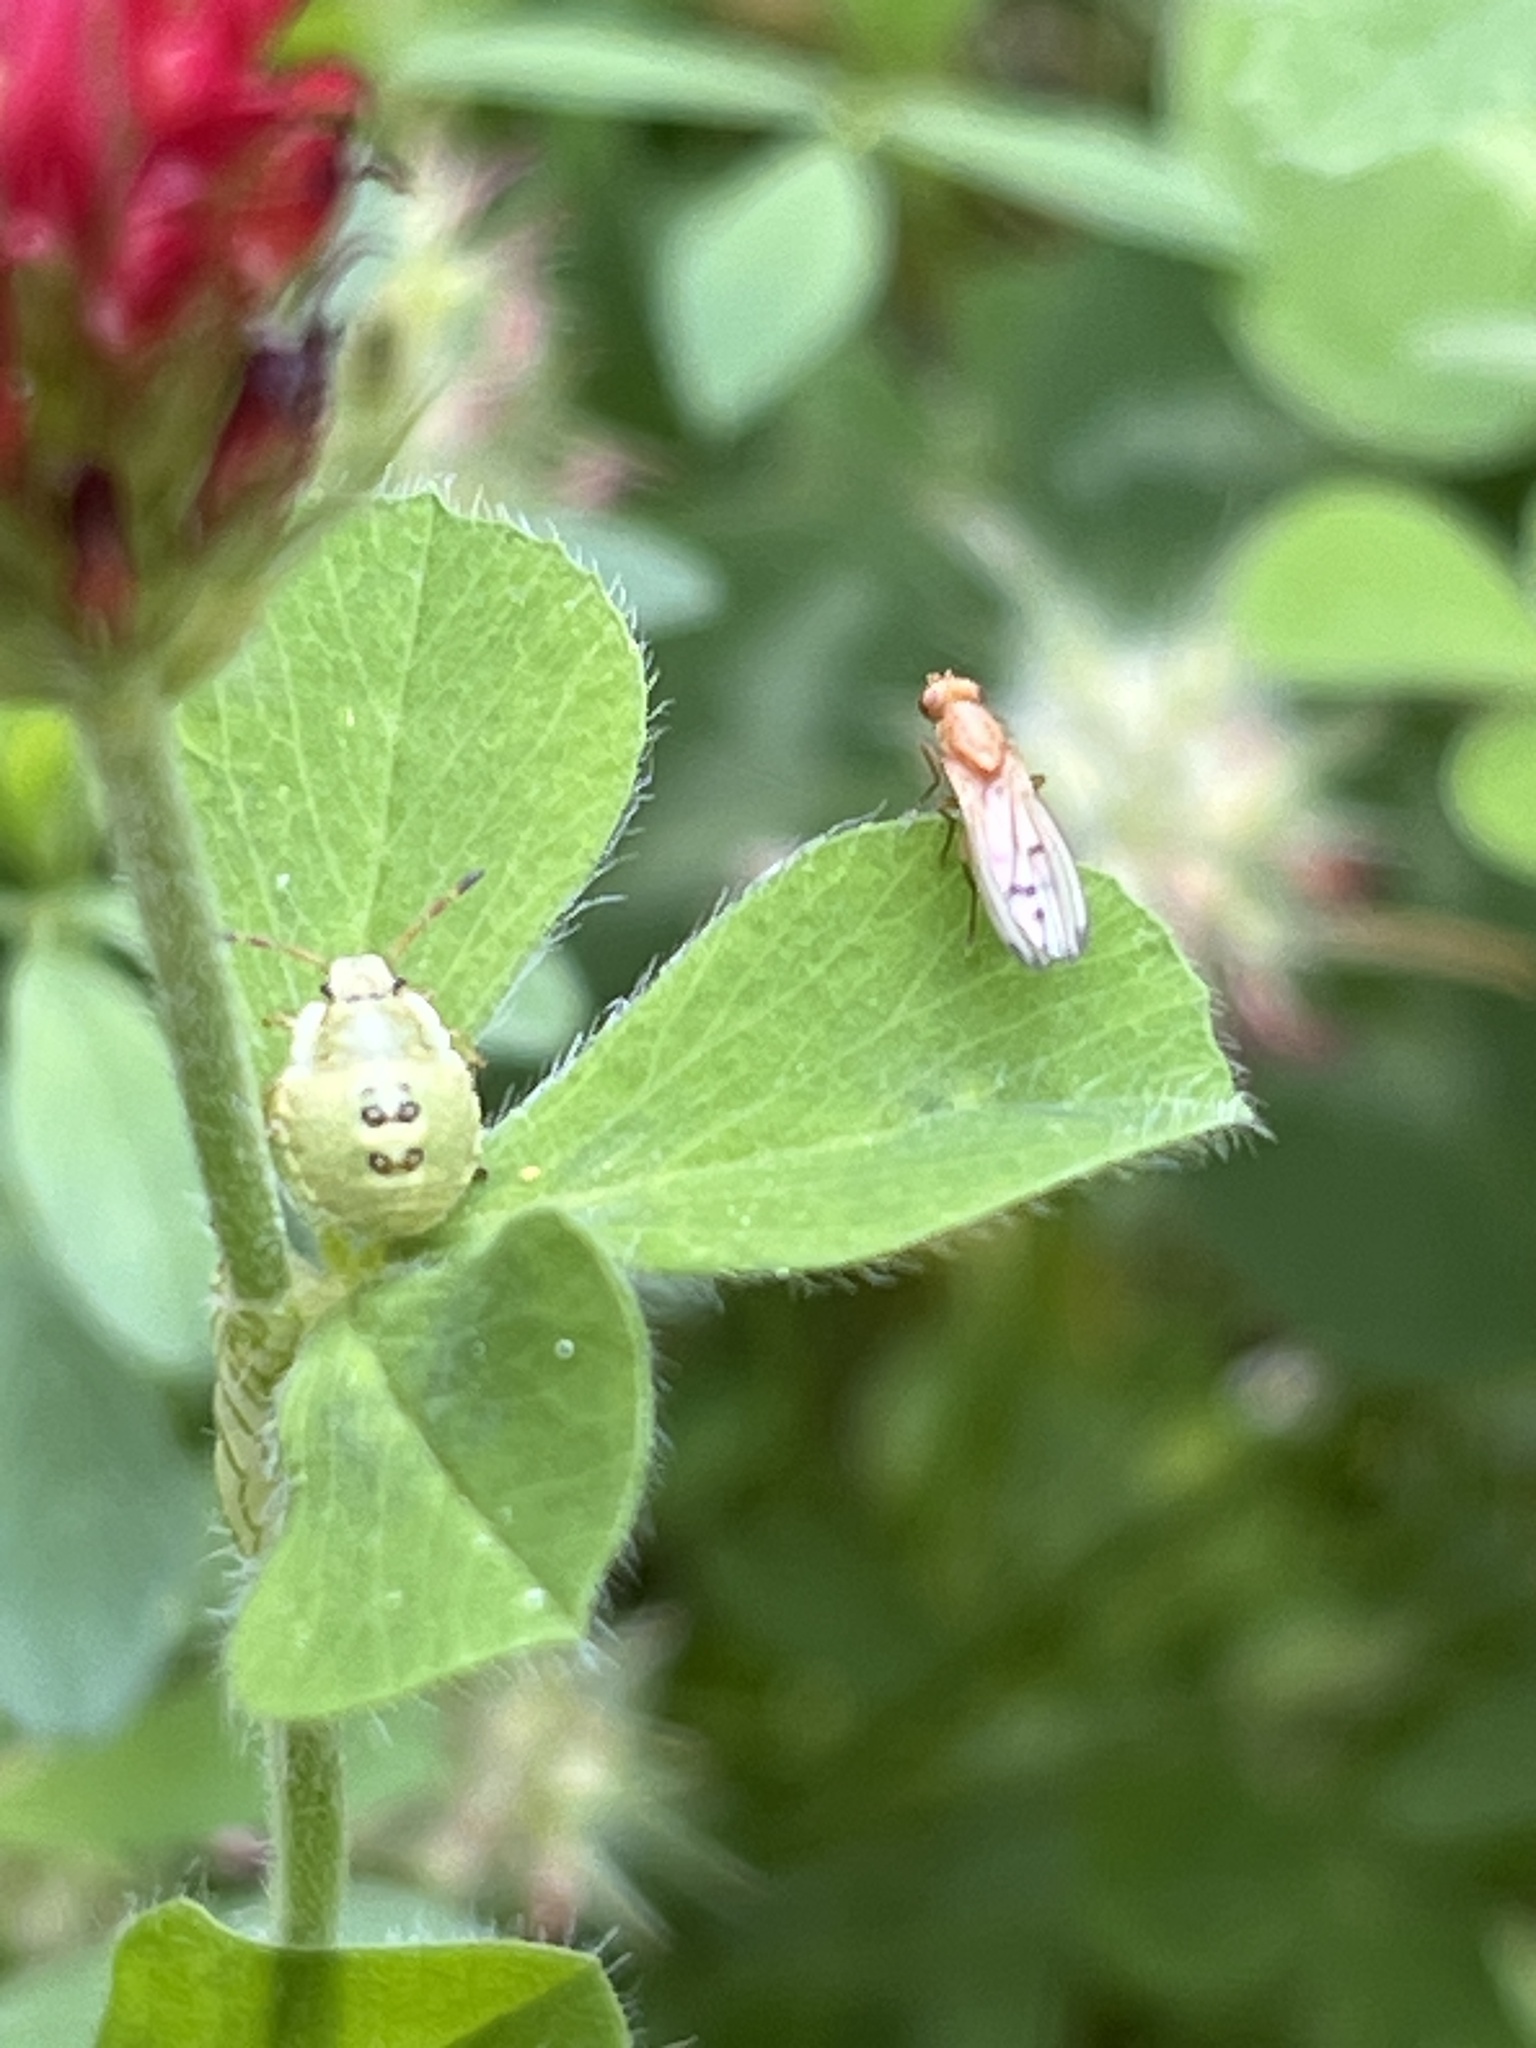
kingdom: Animalia
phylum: Arthropoda
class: Insecta
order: Hemiptera
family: Pentatomidae
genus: Palomena
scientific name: Palomena prasina
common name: Green shieldbug
